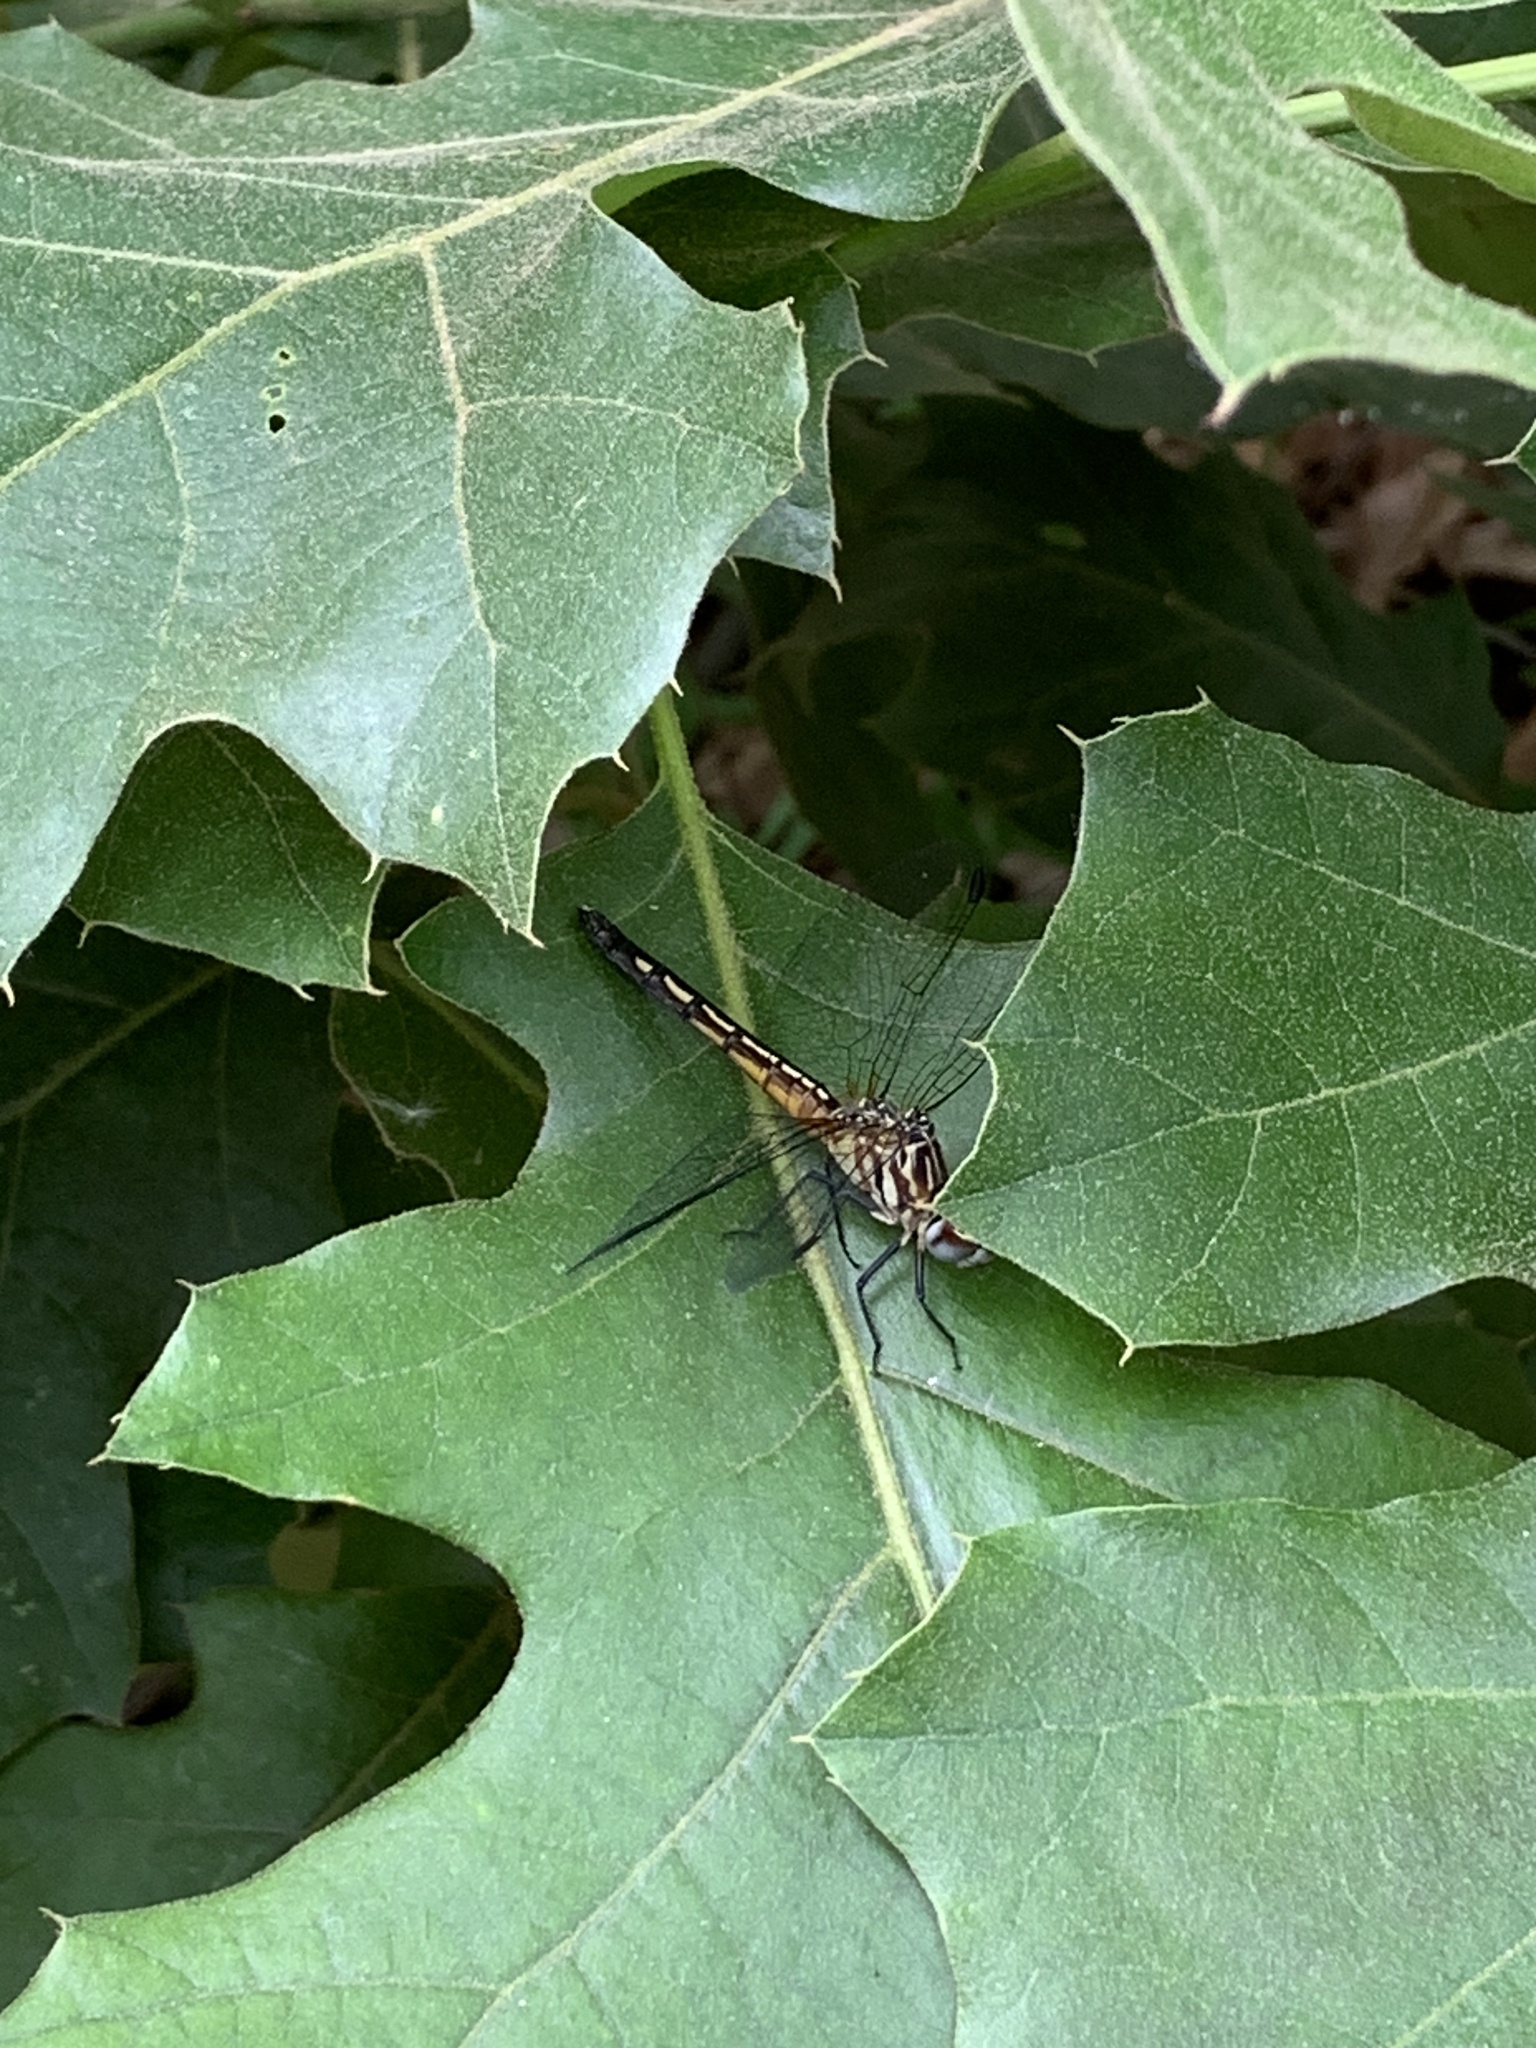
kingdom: Animalia
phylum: Arthropoda
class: Insecta
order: Odonata
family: Libellulidae
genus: Pachydiplax
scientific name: Pachydiplax longipennis
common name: Blue dasher
